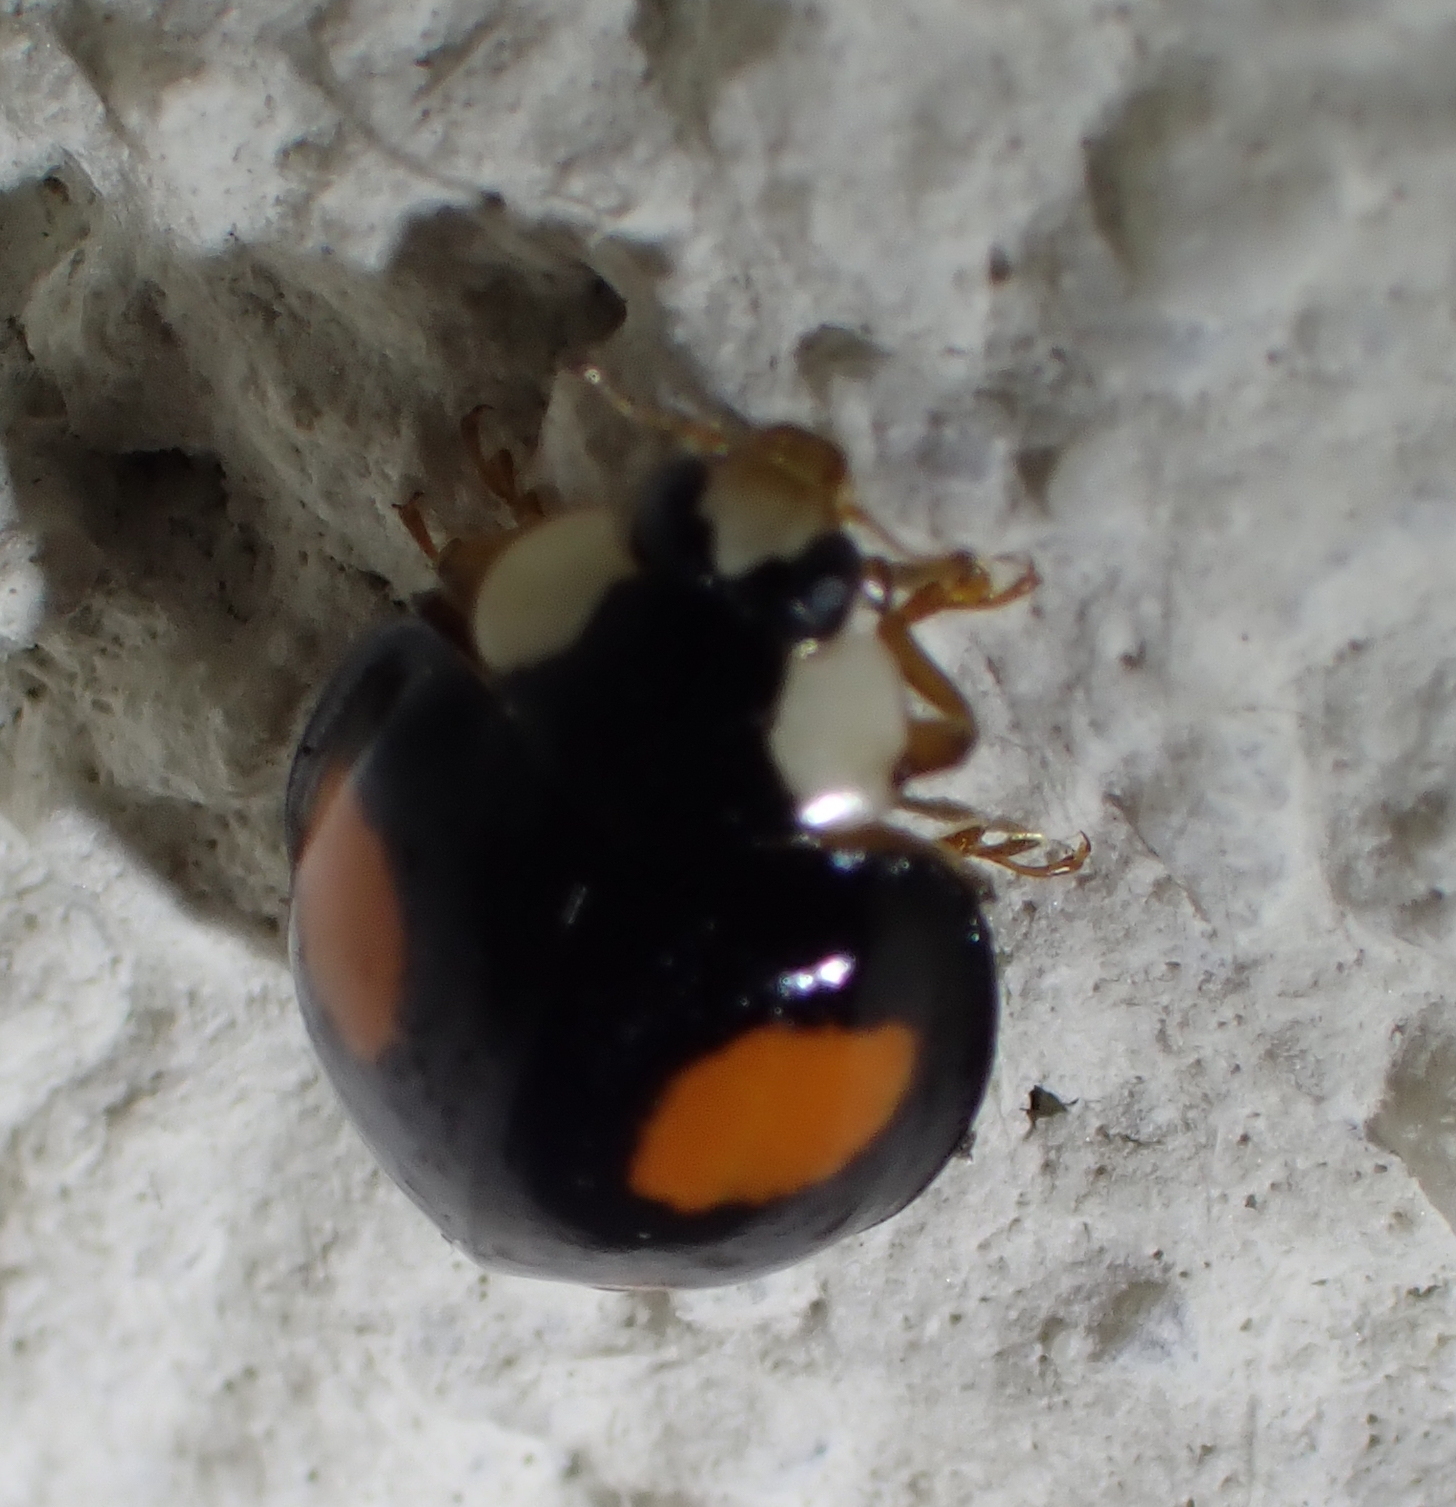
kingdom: Animalia
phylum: Arthropoda
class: Insecta
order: Coleoptera
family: Coccinellidae
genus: Harmonia
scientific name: Harmonia axyridis
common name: Harlequin ladybird
